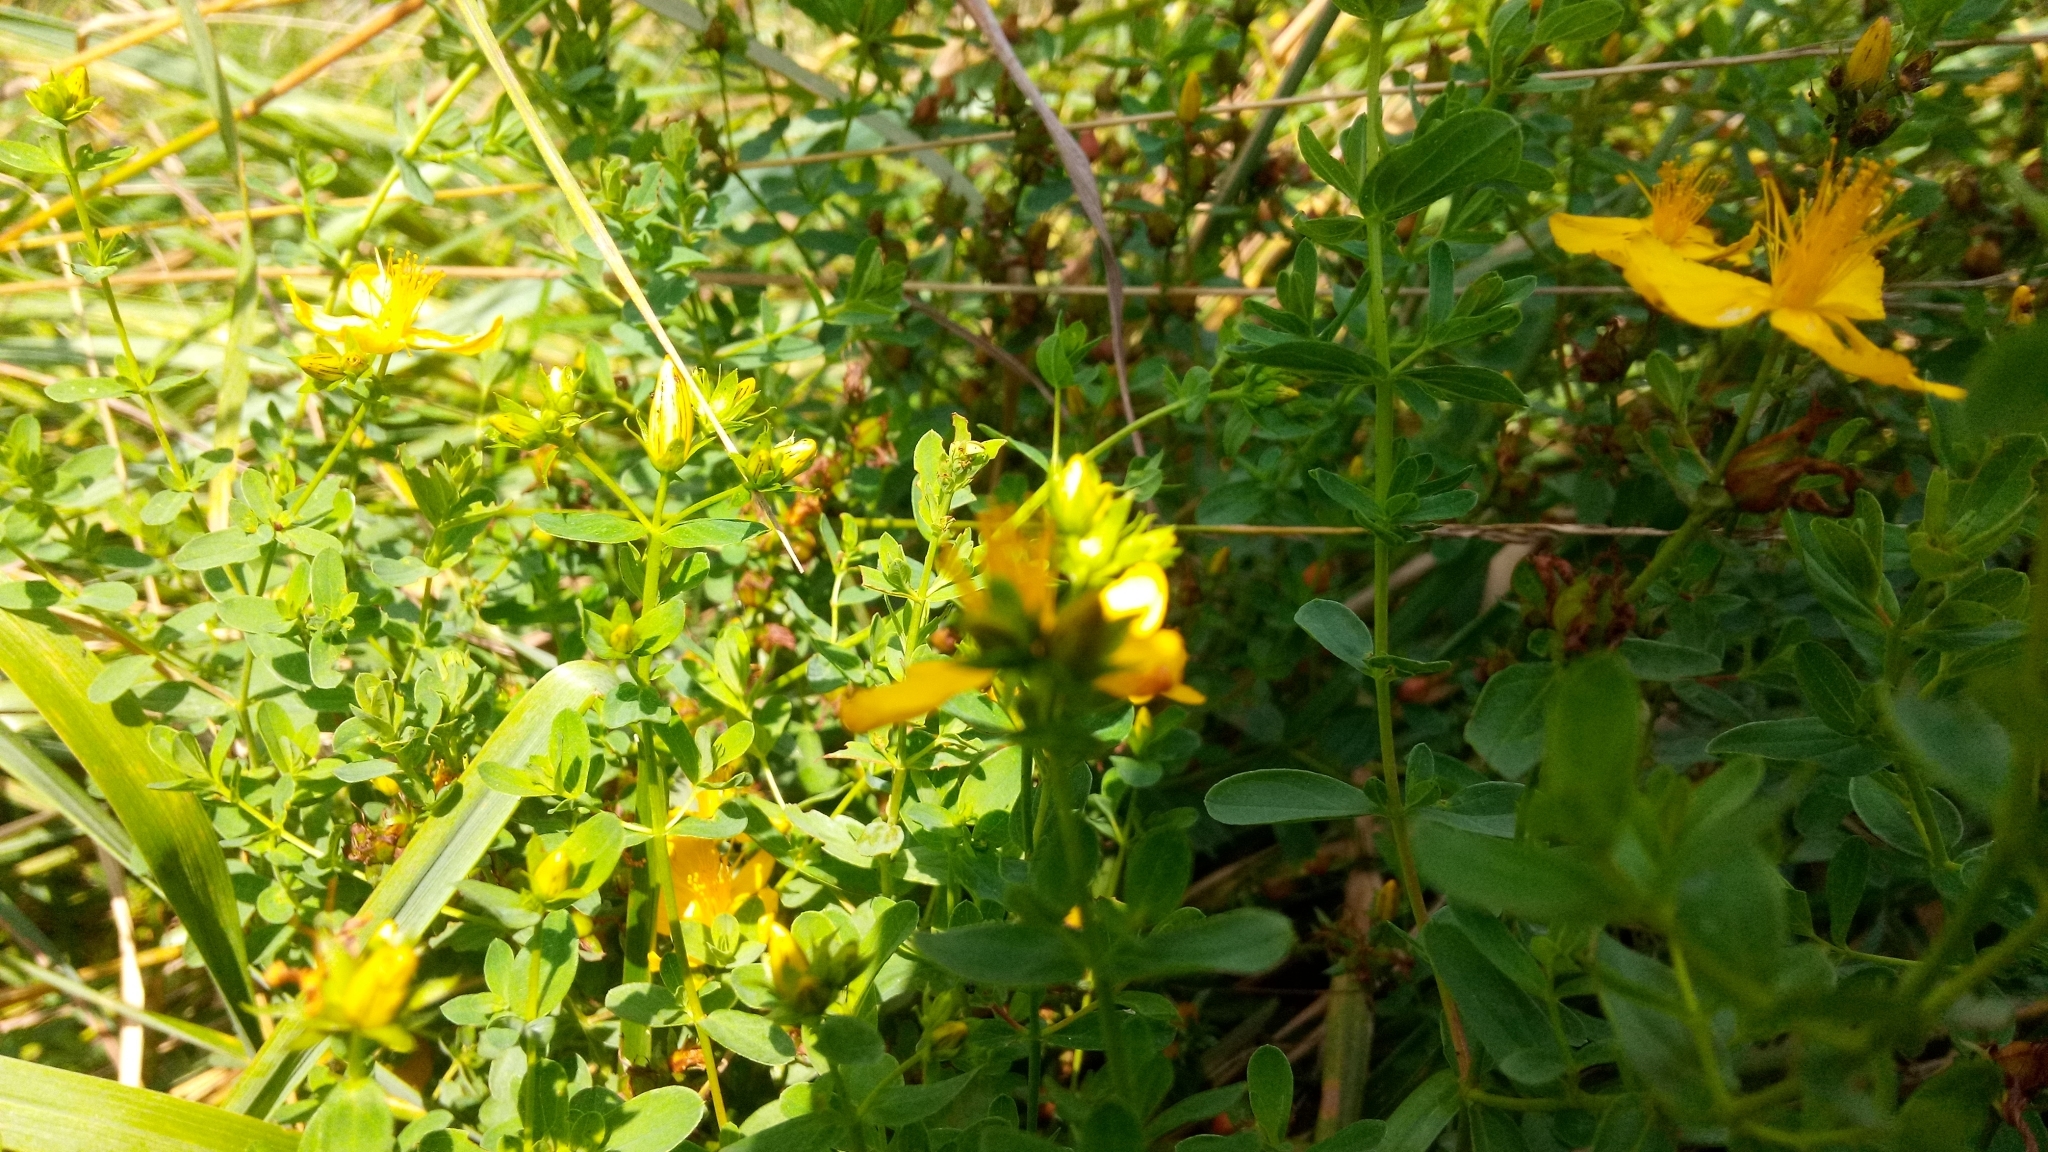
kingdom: Plantae
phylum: Tracheophyta
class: Magnoliopsida
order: Malpighiales
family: Hypericaceae
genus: Hypericum
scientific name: Hypericum perforatum
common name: Common st. johnswort
